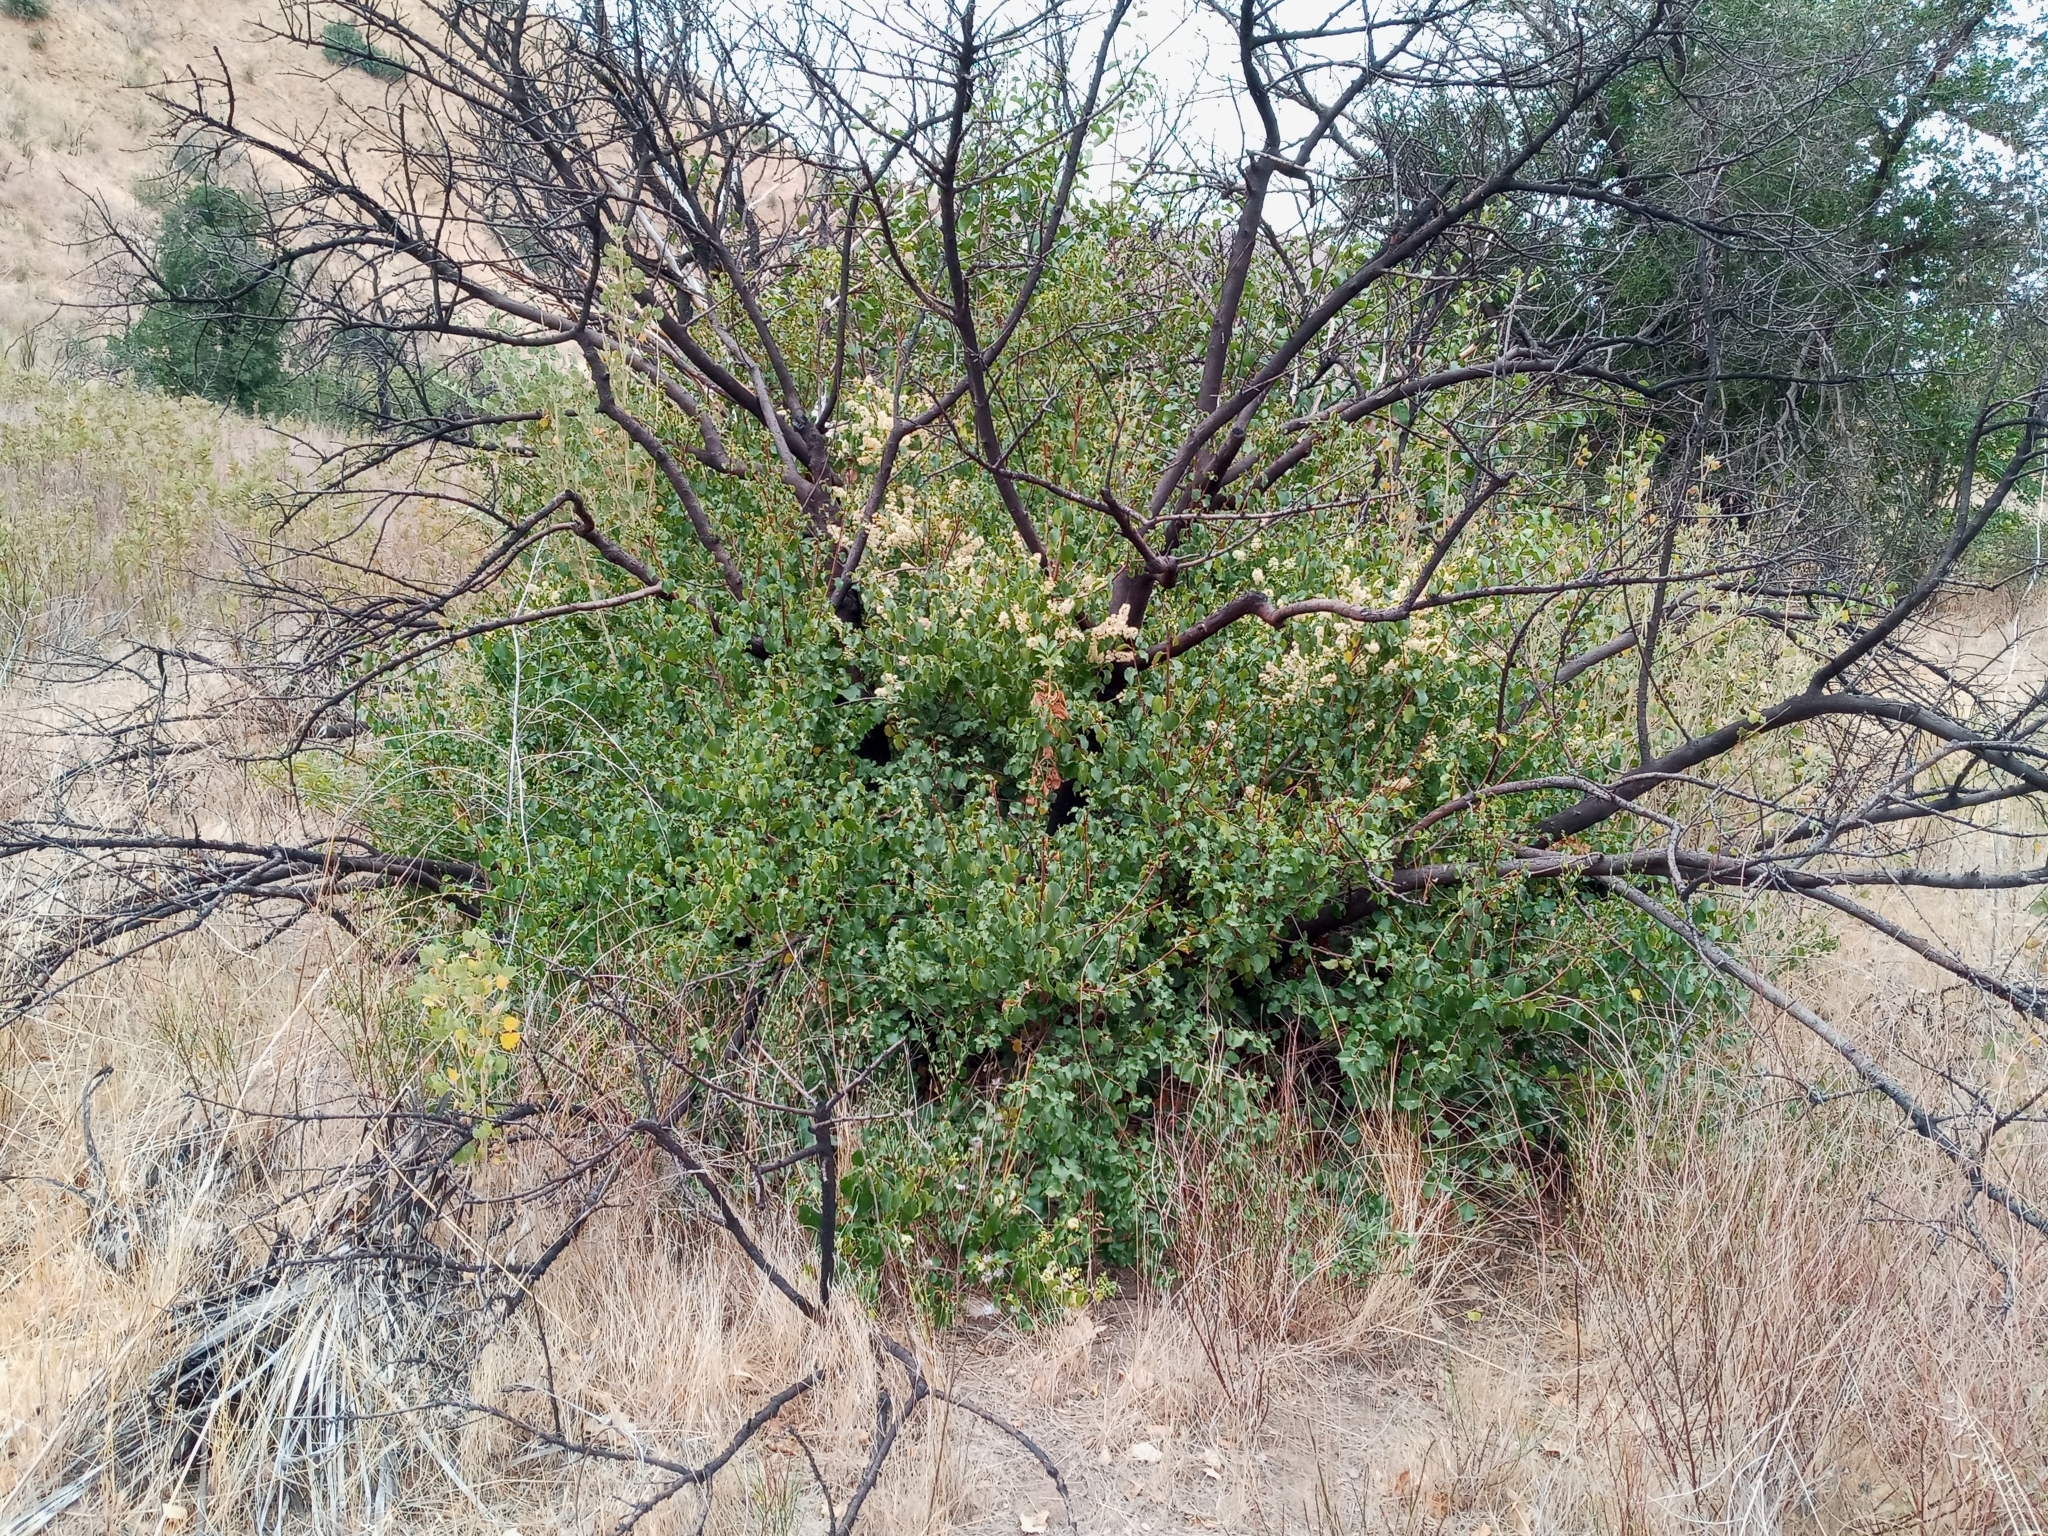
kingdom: Plantae
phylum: Tracheophyta
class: Magnoliopsida
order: Rosales
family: Rosaceae
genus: Prunus
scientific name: Prunus ilicifolia
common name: Hollyleaf cherry
